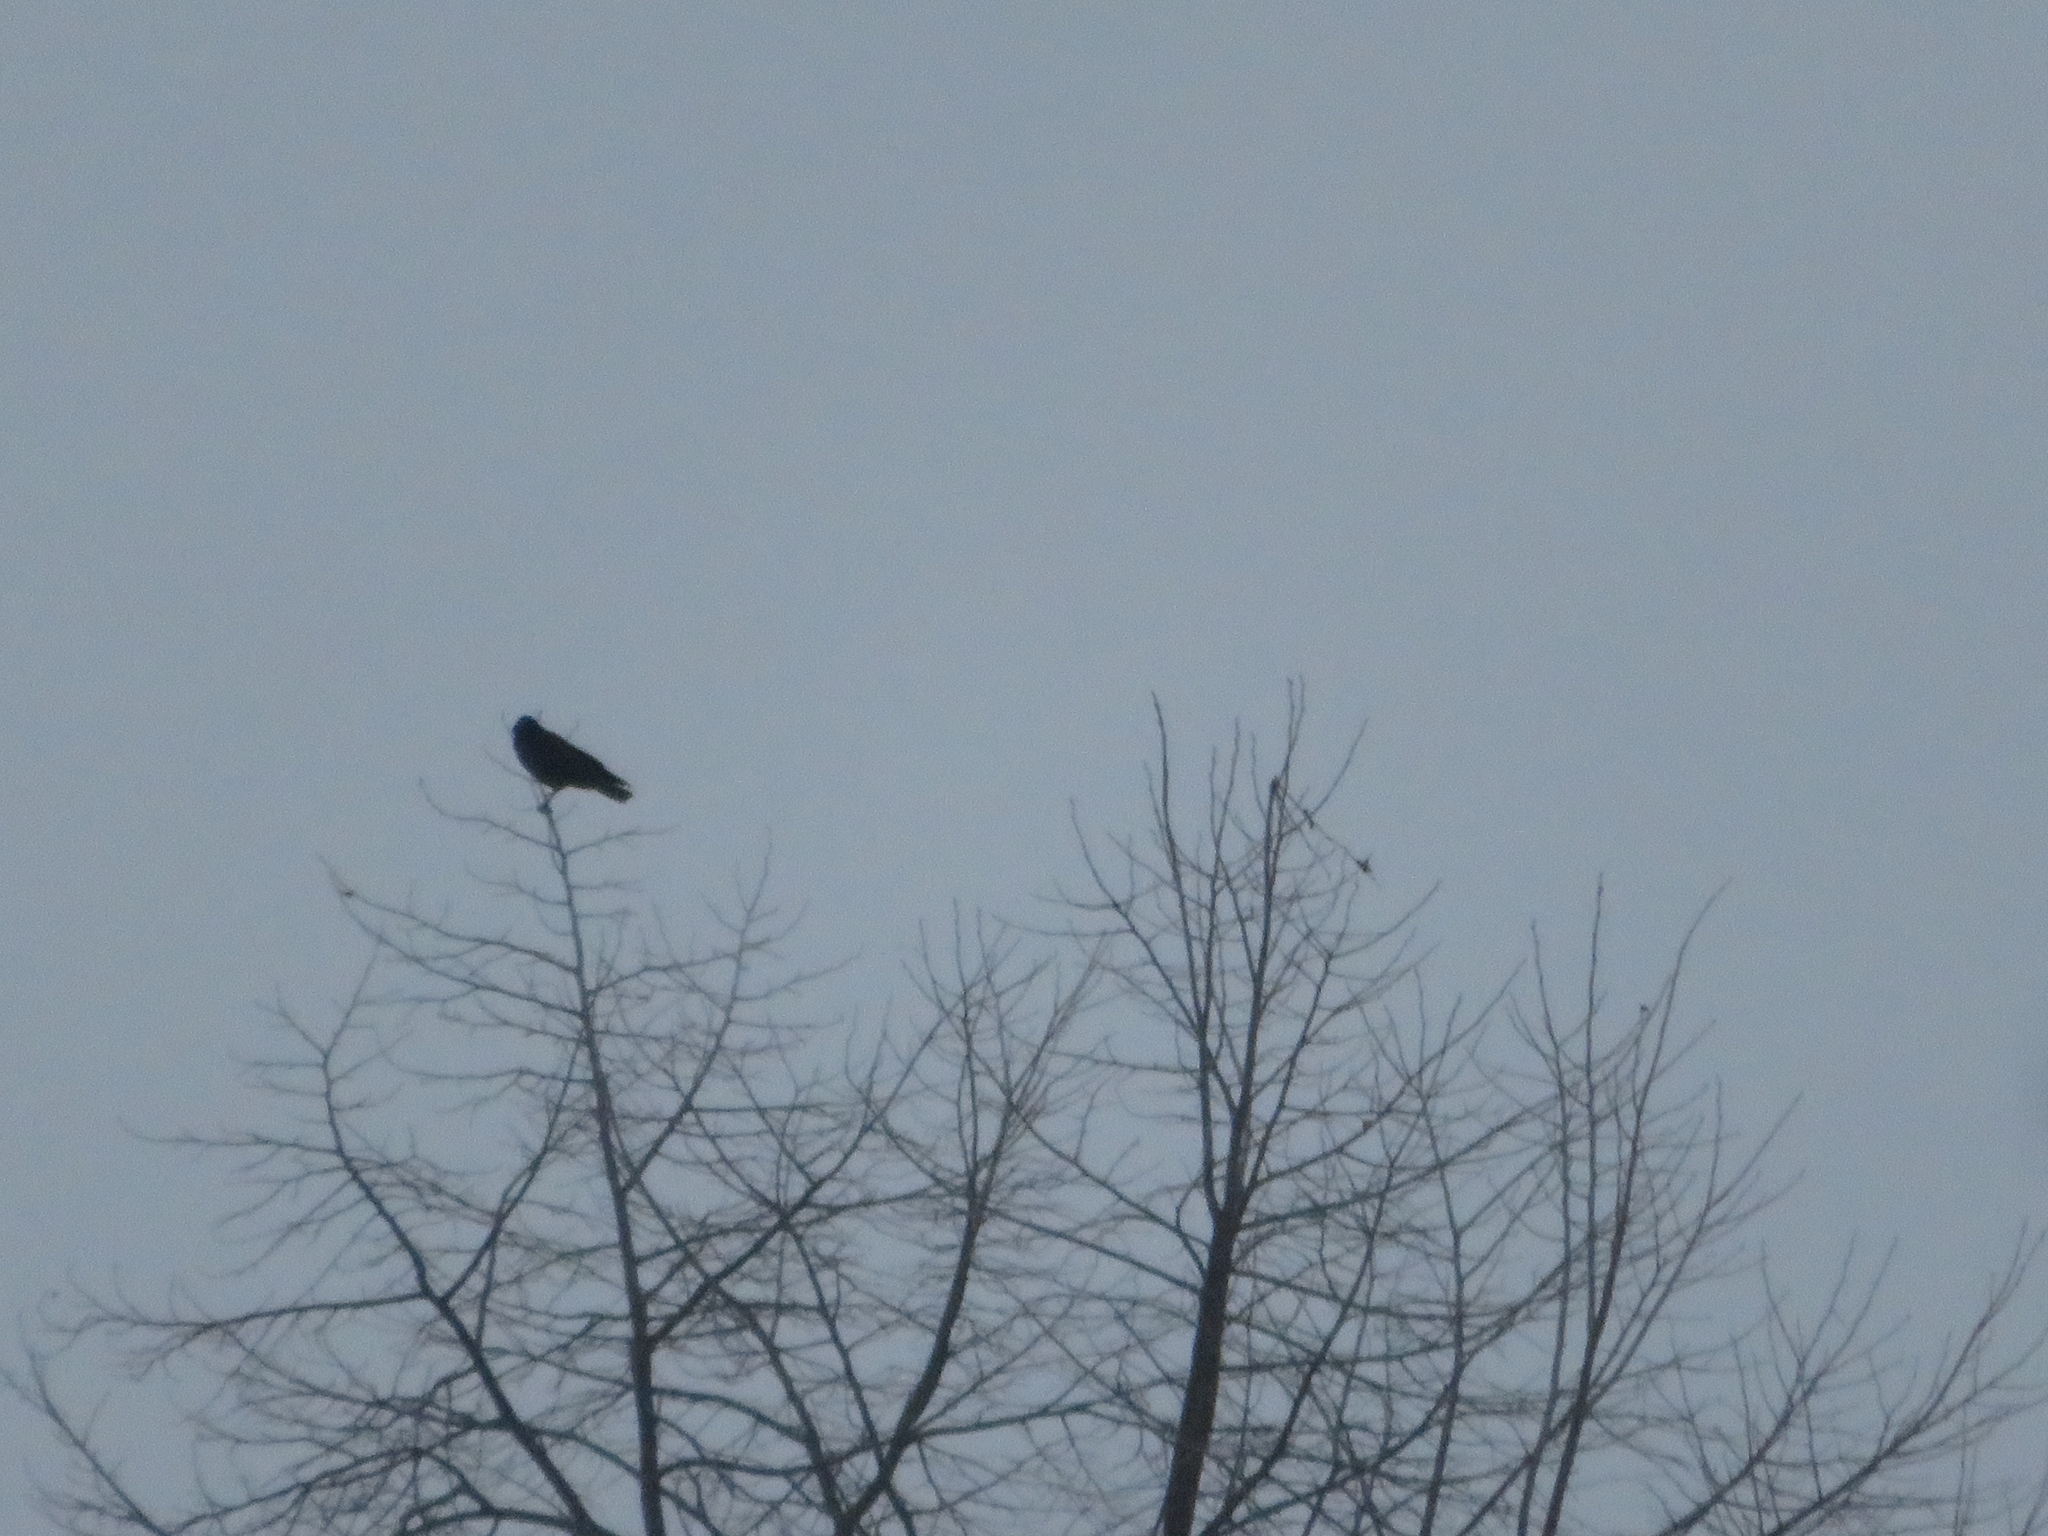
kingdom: Animalia
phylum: Chordata
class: Aves
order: Passeriformes
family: Corvidae
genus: Corvus
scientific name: Corvus brachyrhynchos
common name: American crow
